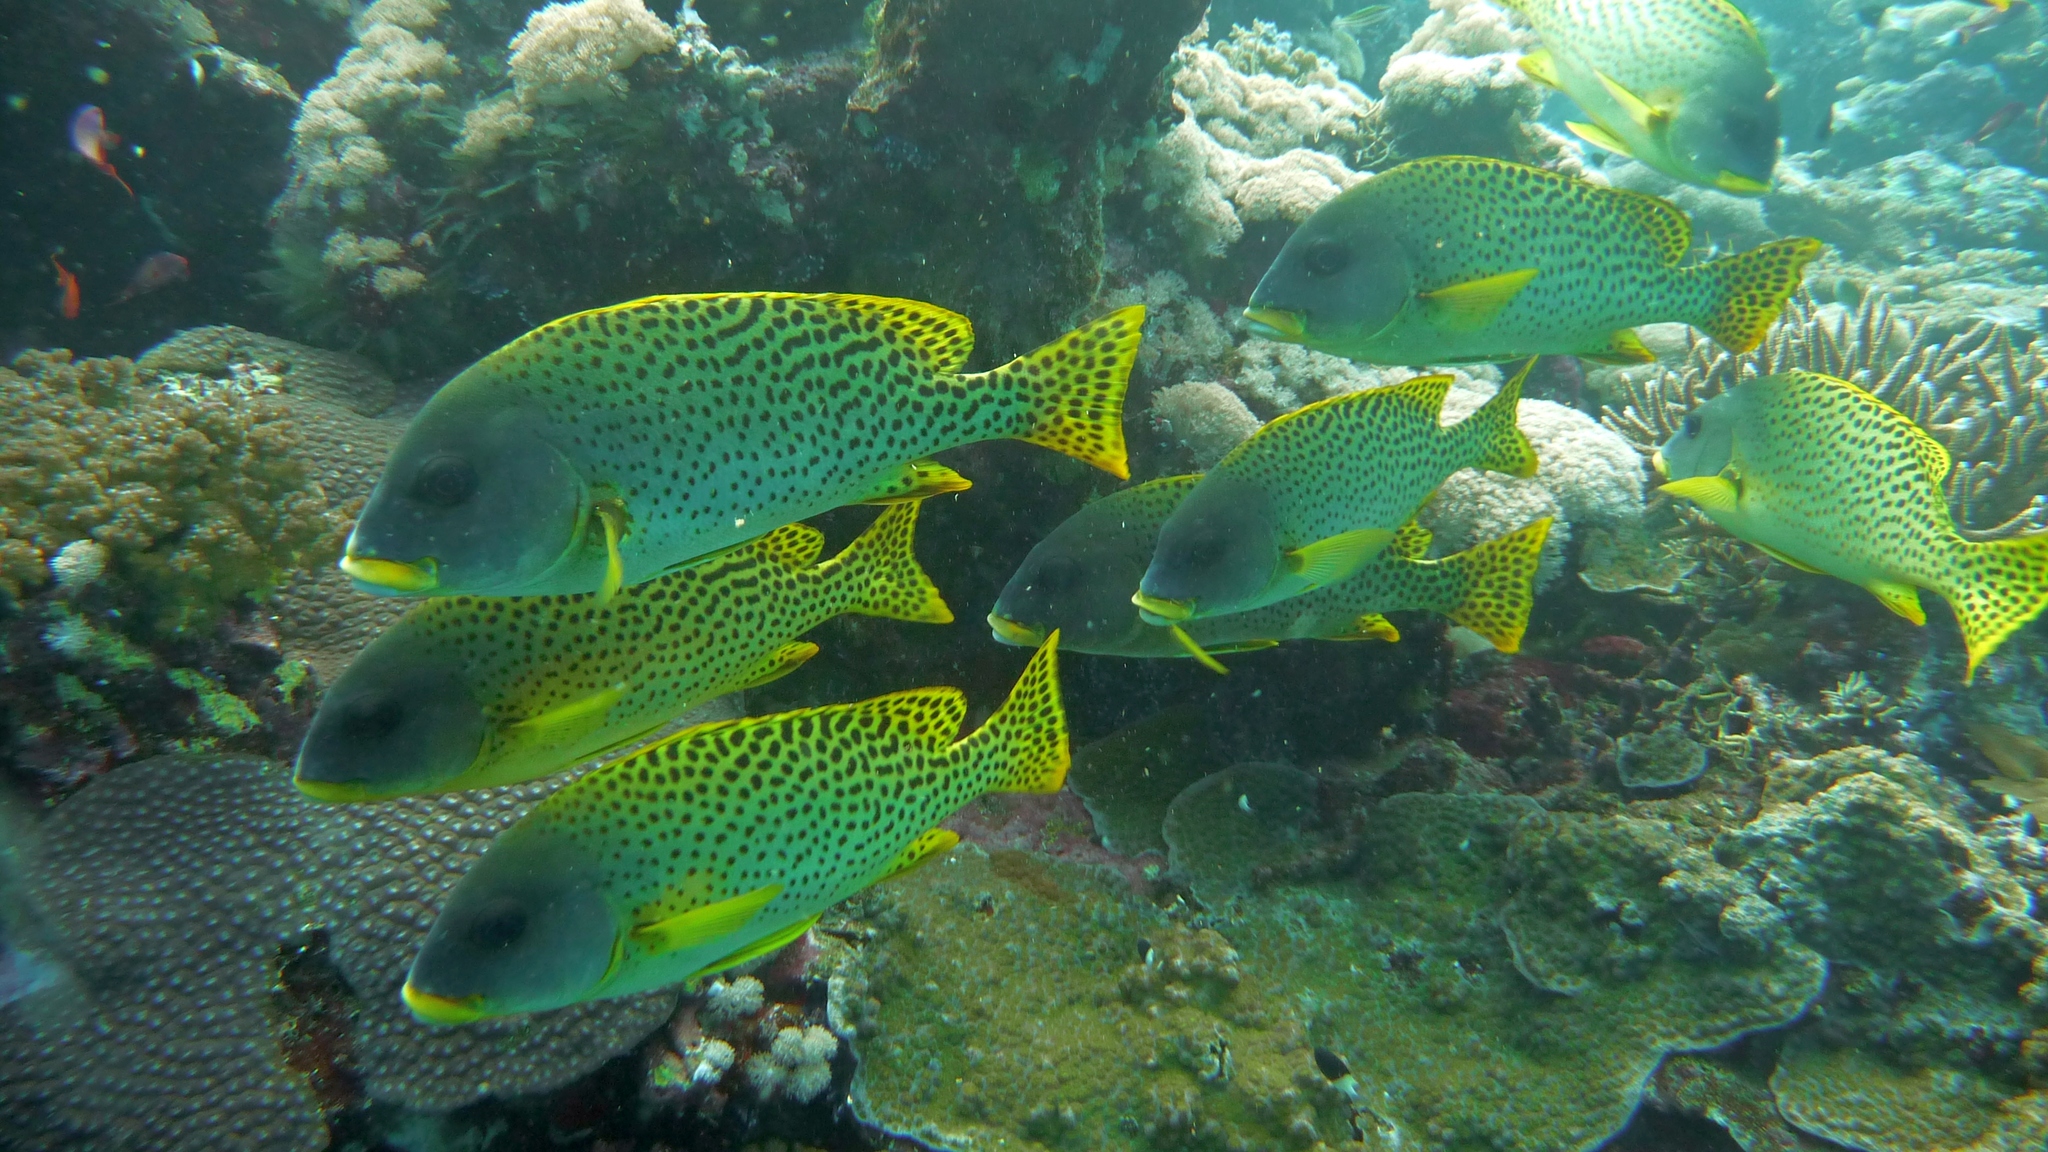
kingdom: Animalia
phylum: Chordata
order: Perciformes
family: Haemulidae
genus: Plectorhinchus
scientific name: Plectorhinchus gaterinus
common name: Blackspotted rubberlip
